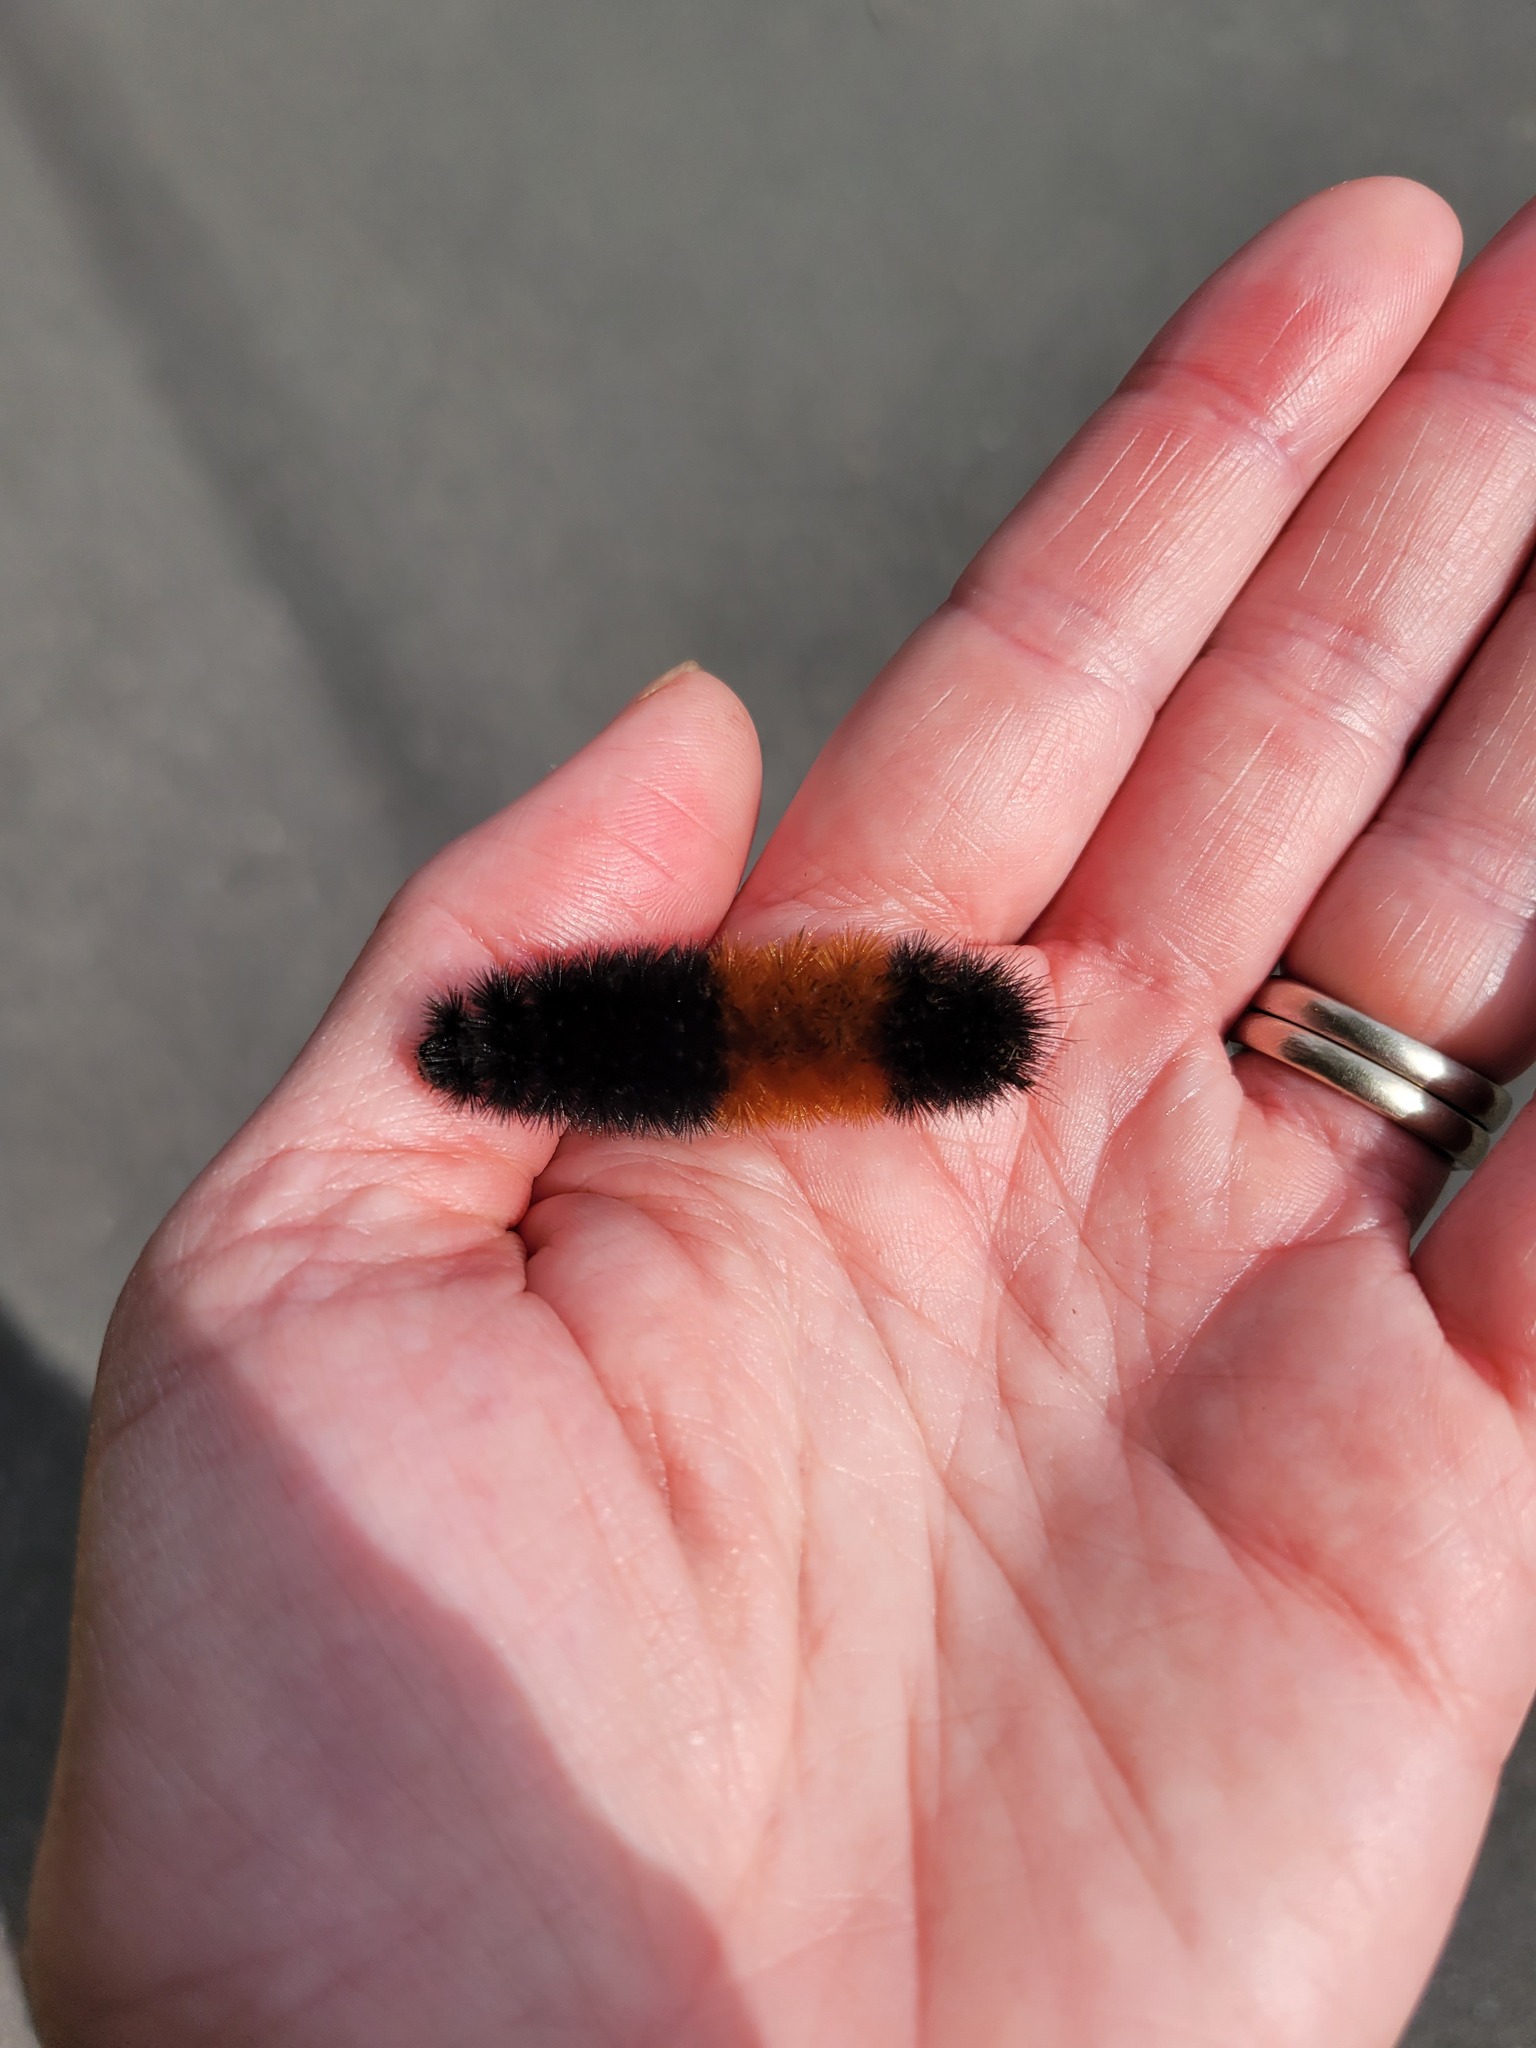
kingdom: Animalia
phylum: Arthropoda
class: Insecta
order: Lepidoptera
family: Erebidae
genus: Pyrrharctia
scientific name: Pyrrharctia isabella
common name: Isabella tiger moth
